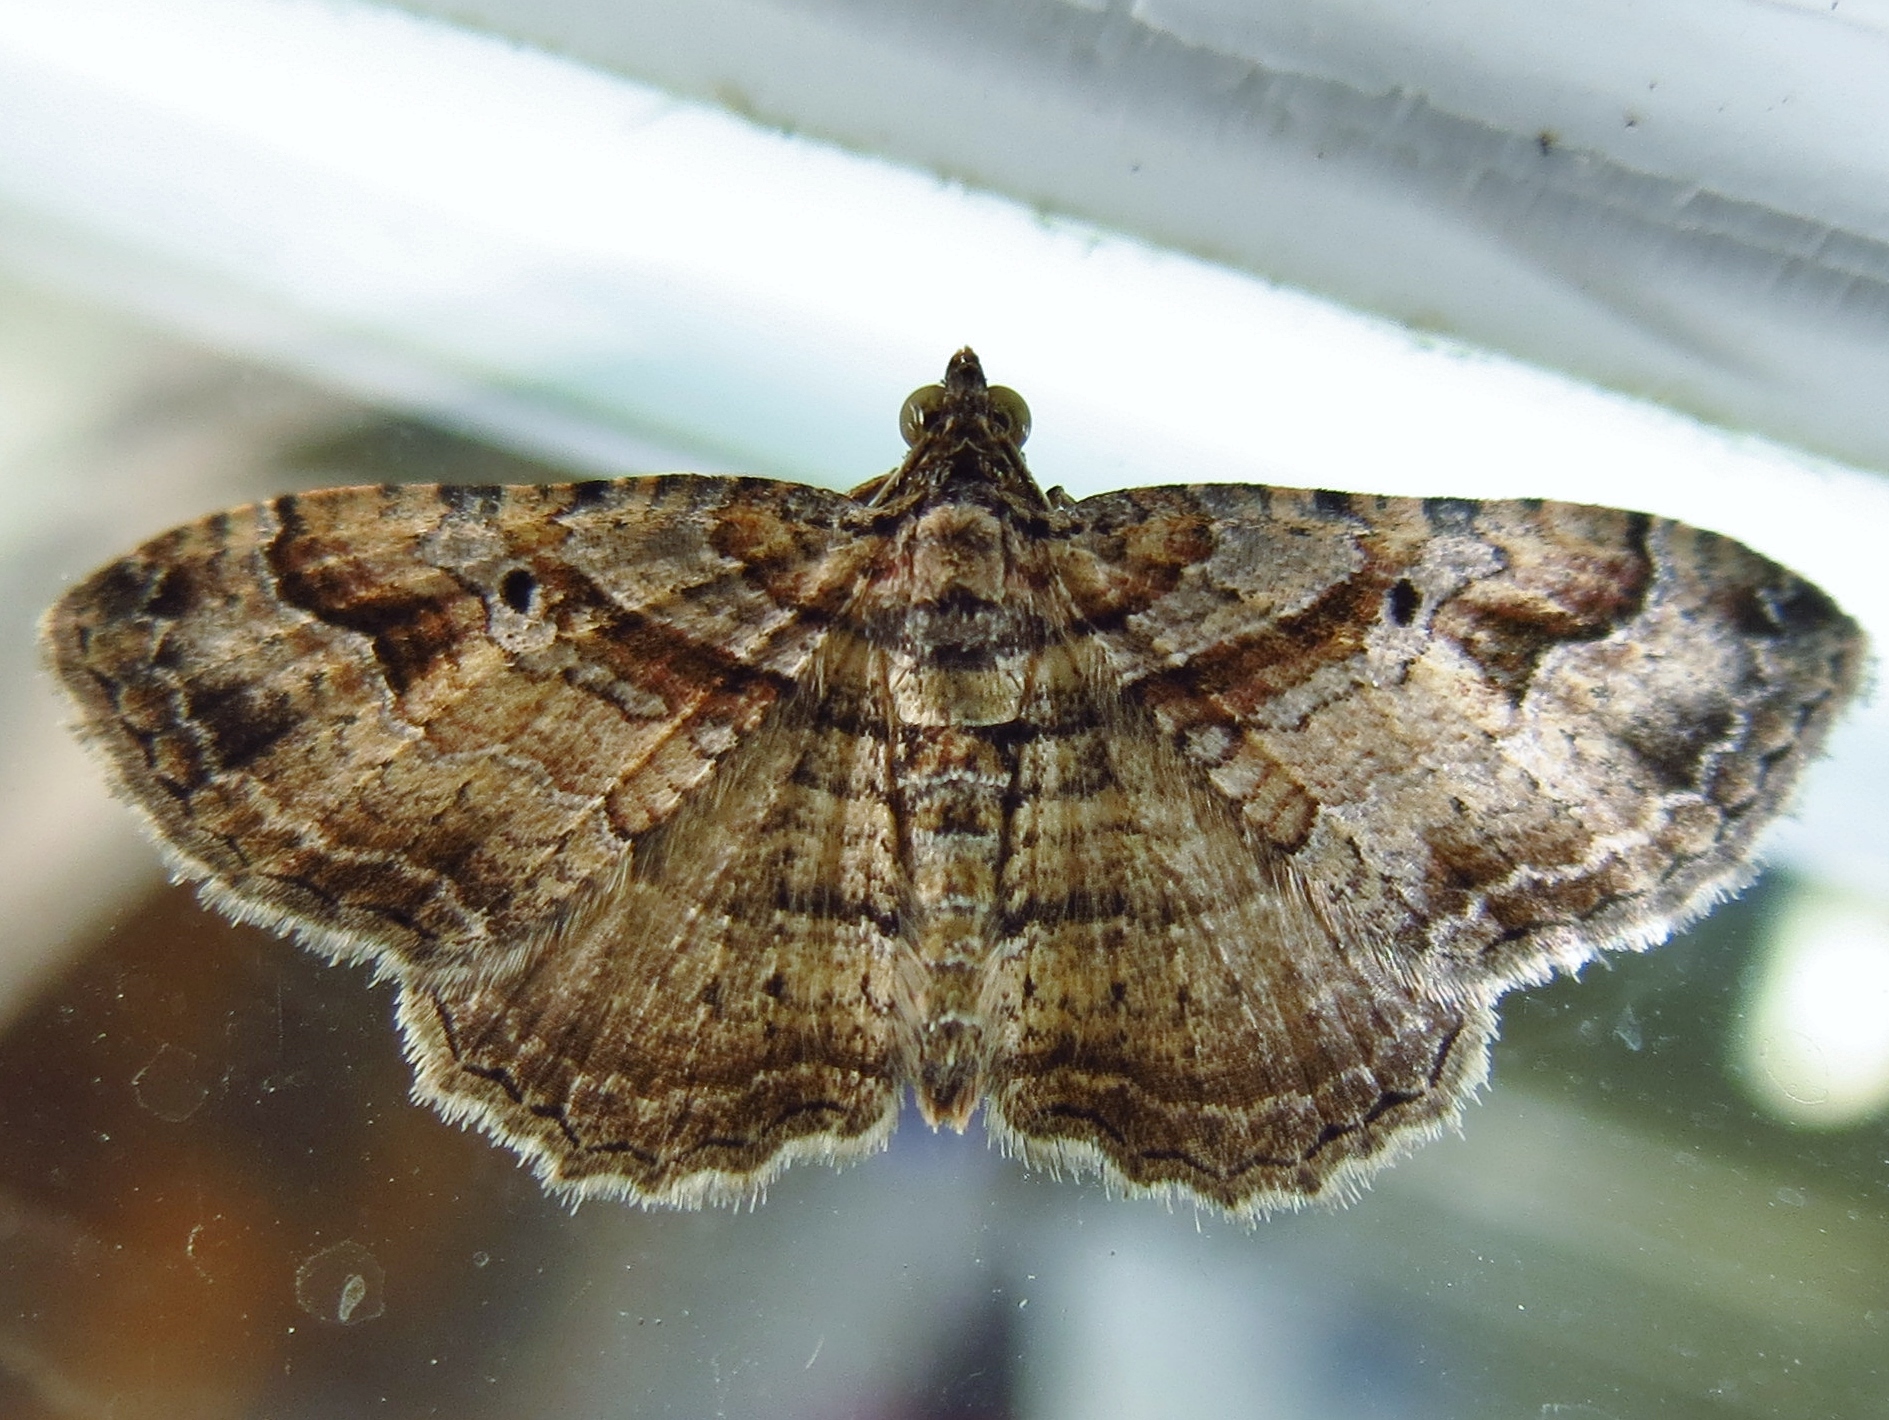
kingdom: Animalia
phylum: Arthropoda
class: Insecta
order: Lepidoptera
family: Geometridae
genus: Costaconvexa
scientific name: Costaconvexa centrostrigaria
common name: Bent-line carpet
